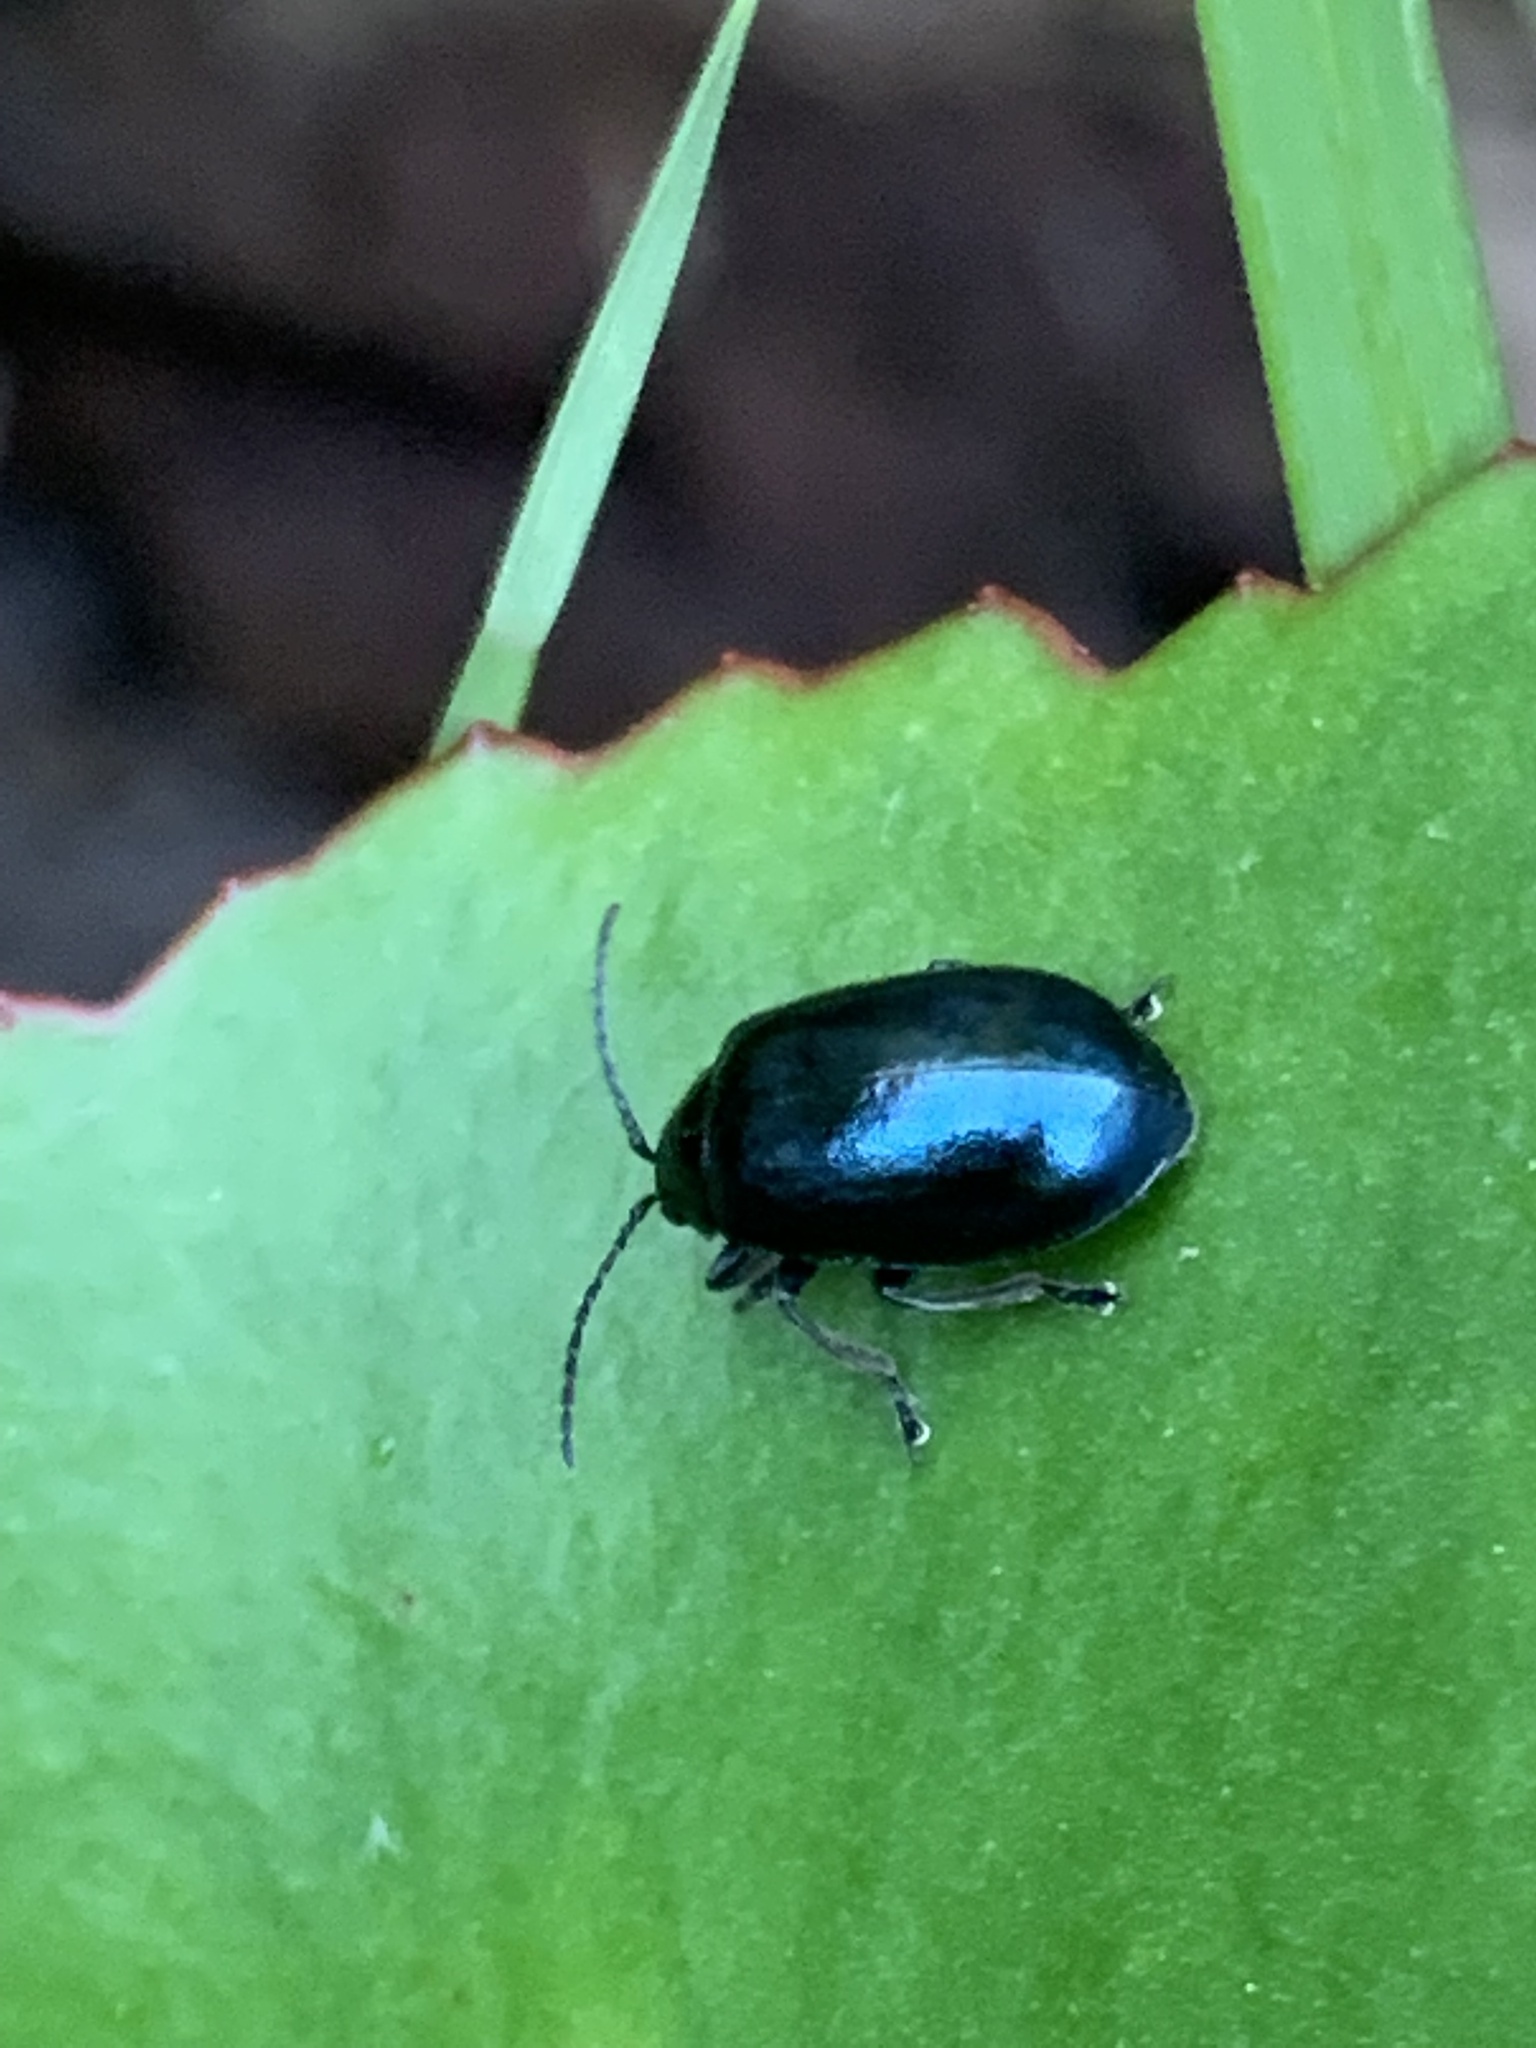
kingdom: Animalia
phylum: Arthropoda
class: Insecta
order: Coleoptera
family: Chrysomelidae
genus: Agelastica
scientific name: Agelastica alni
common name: Alder leaf beetle
